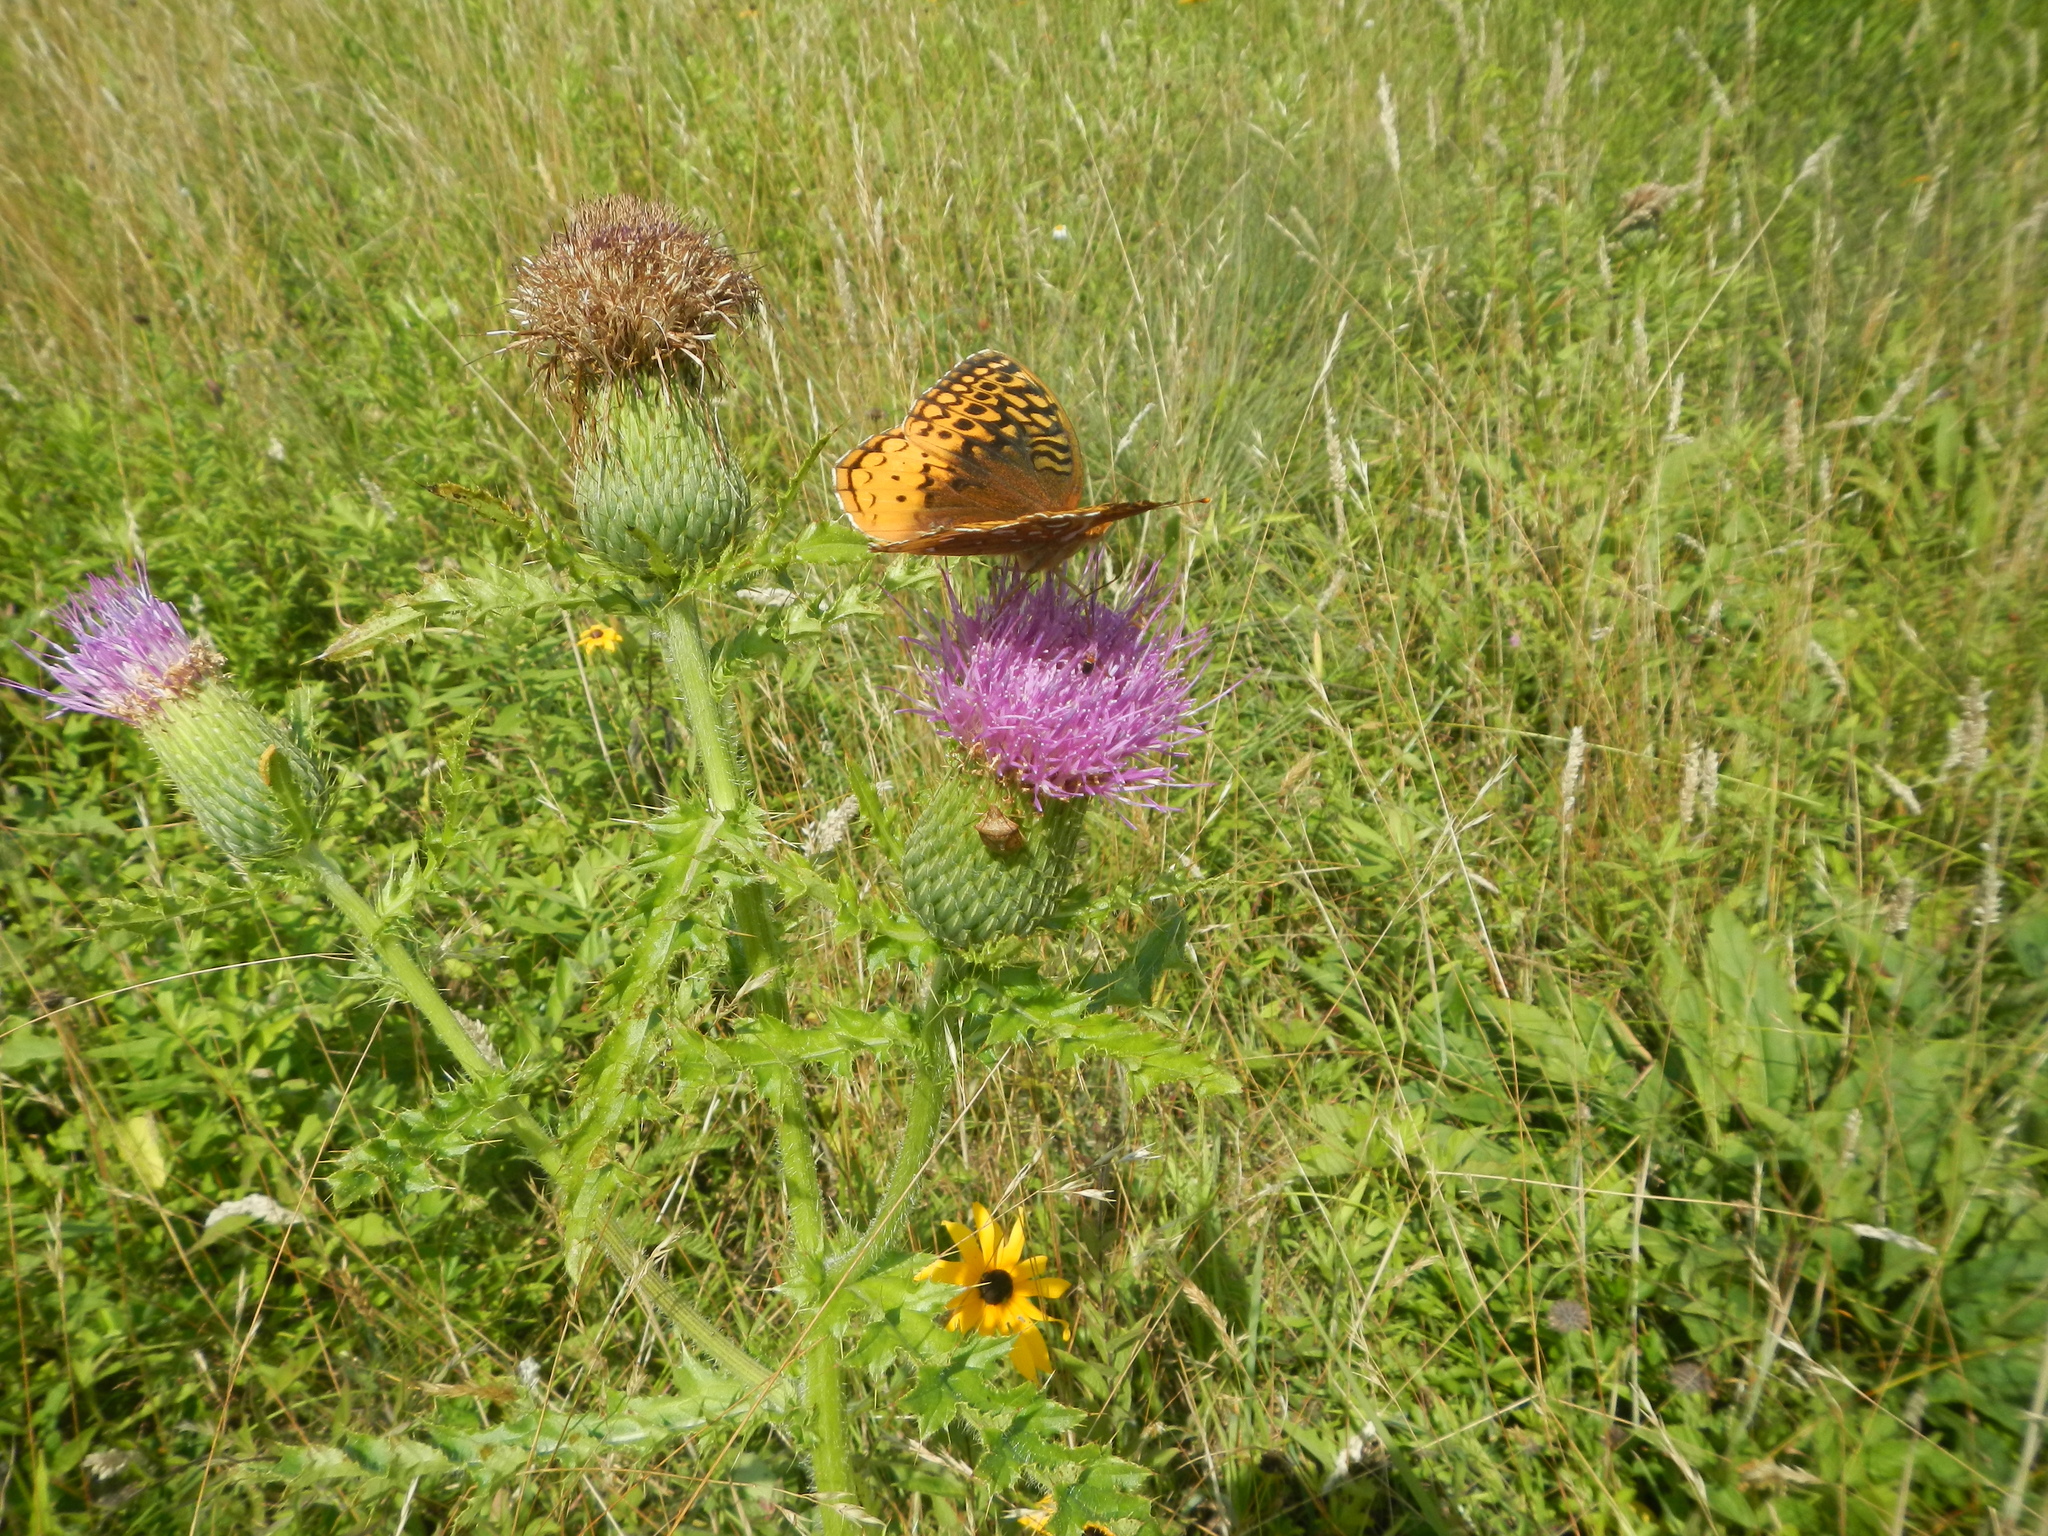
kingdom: Animalia
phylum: Arthropoda
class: Insecta
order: Lepidoptera
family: Nymphalidae
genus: Speyeria
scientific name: Speyeria cybele
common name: Great spangled fritillary
